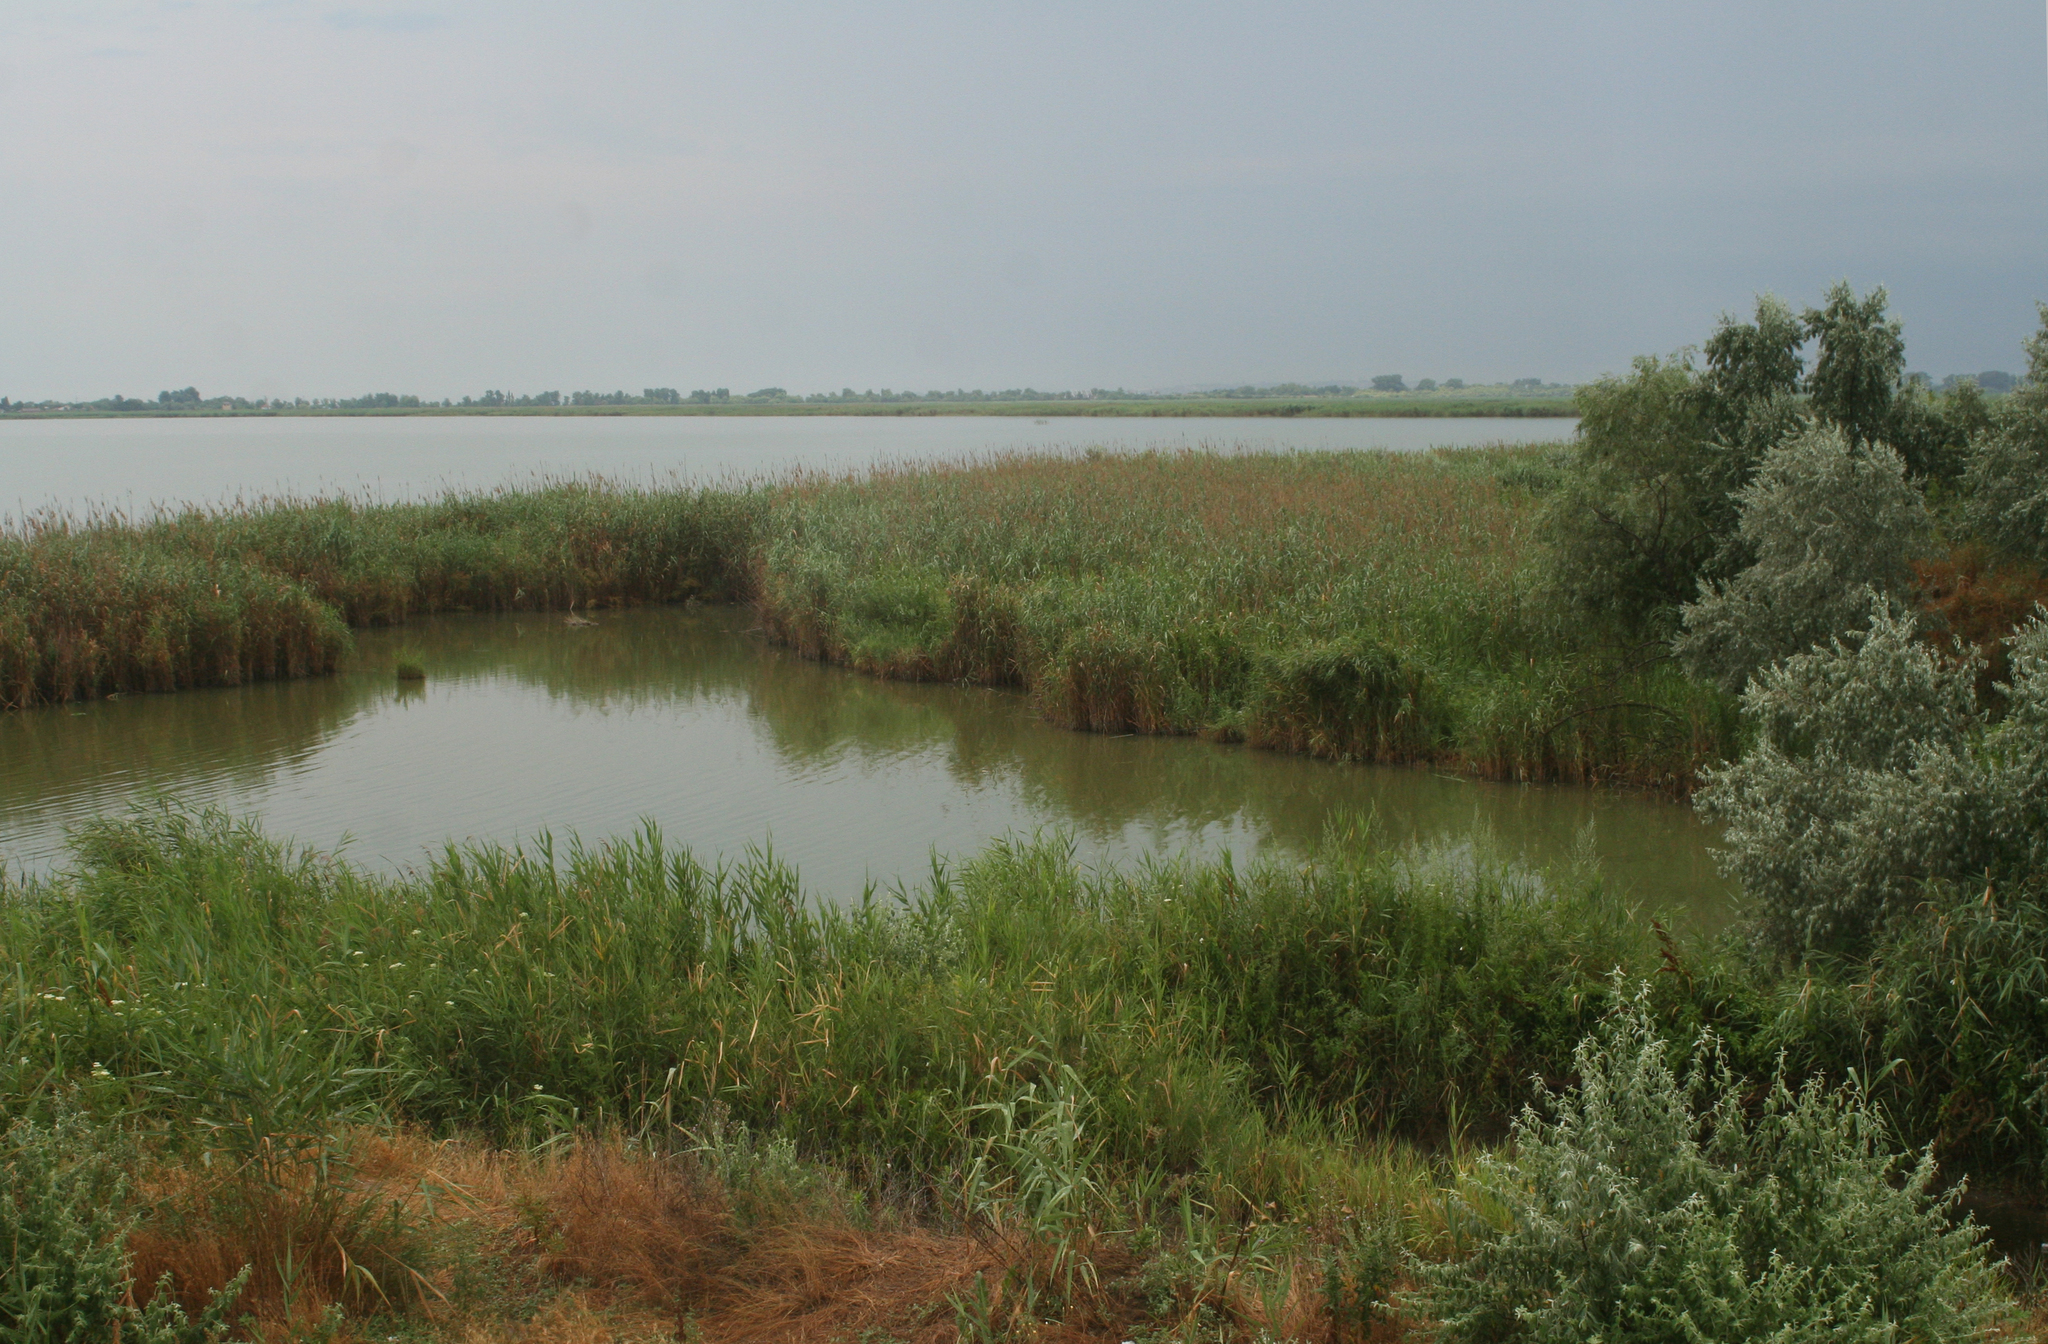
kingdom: Plantae
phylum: Tracheophyta
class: Liliopsida
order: Poales
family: Poaceae
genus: Phragmites
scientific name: Phragmites australis
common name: Common reed
